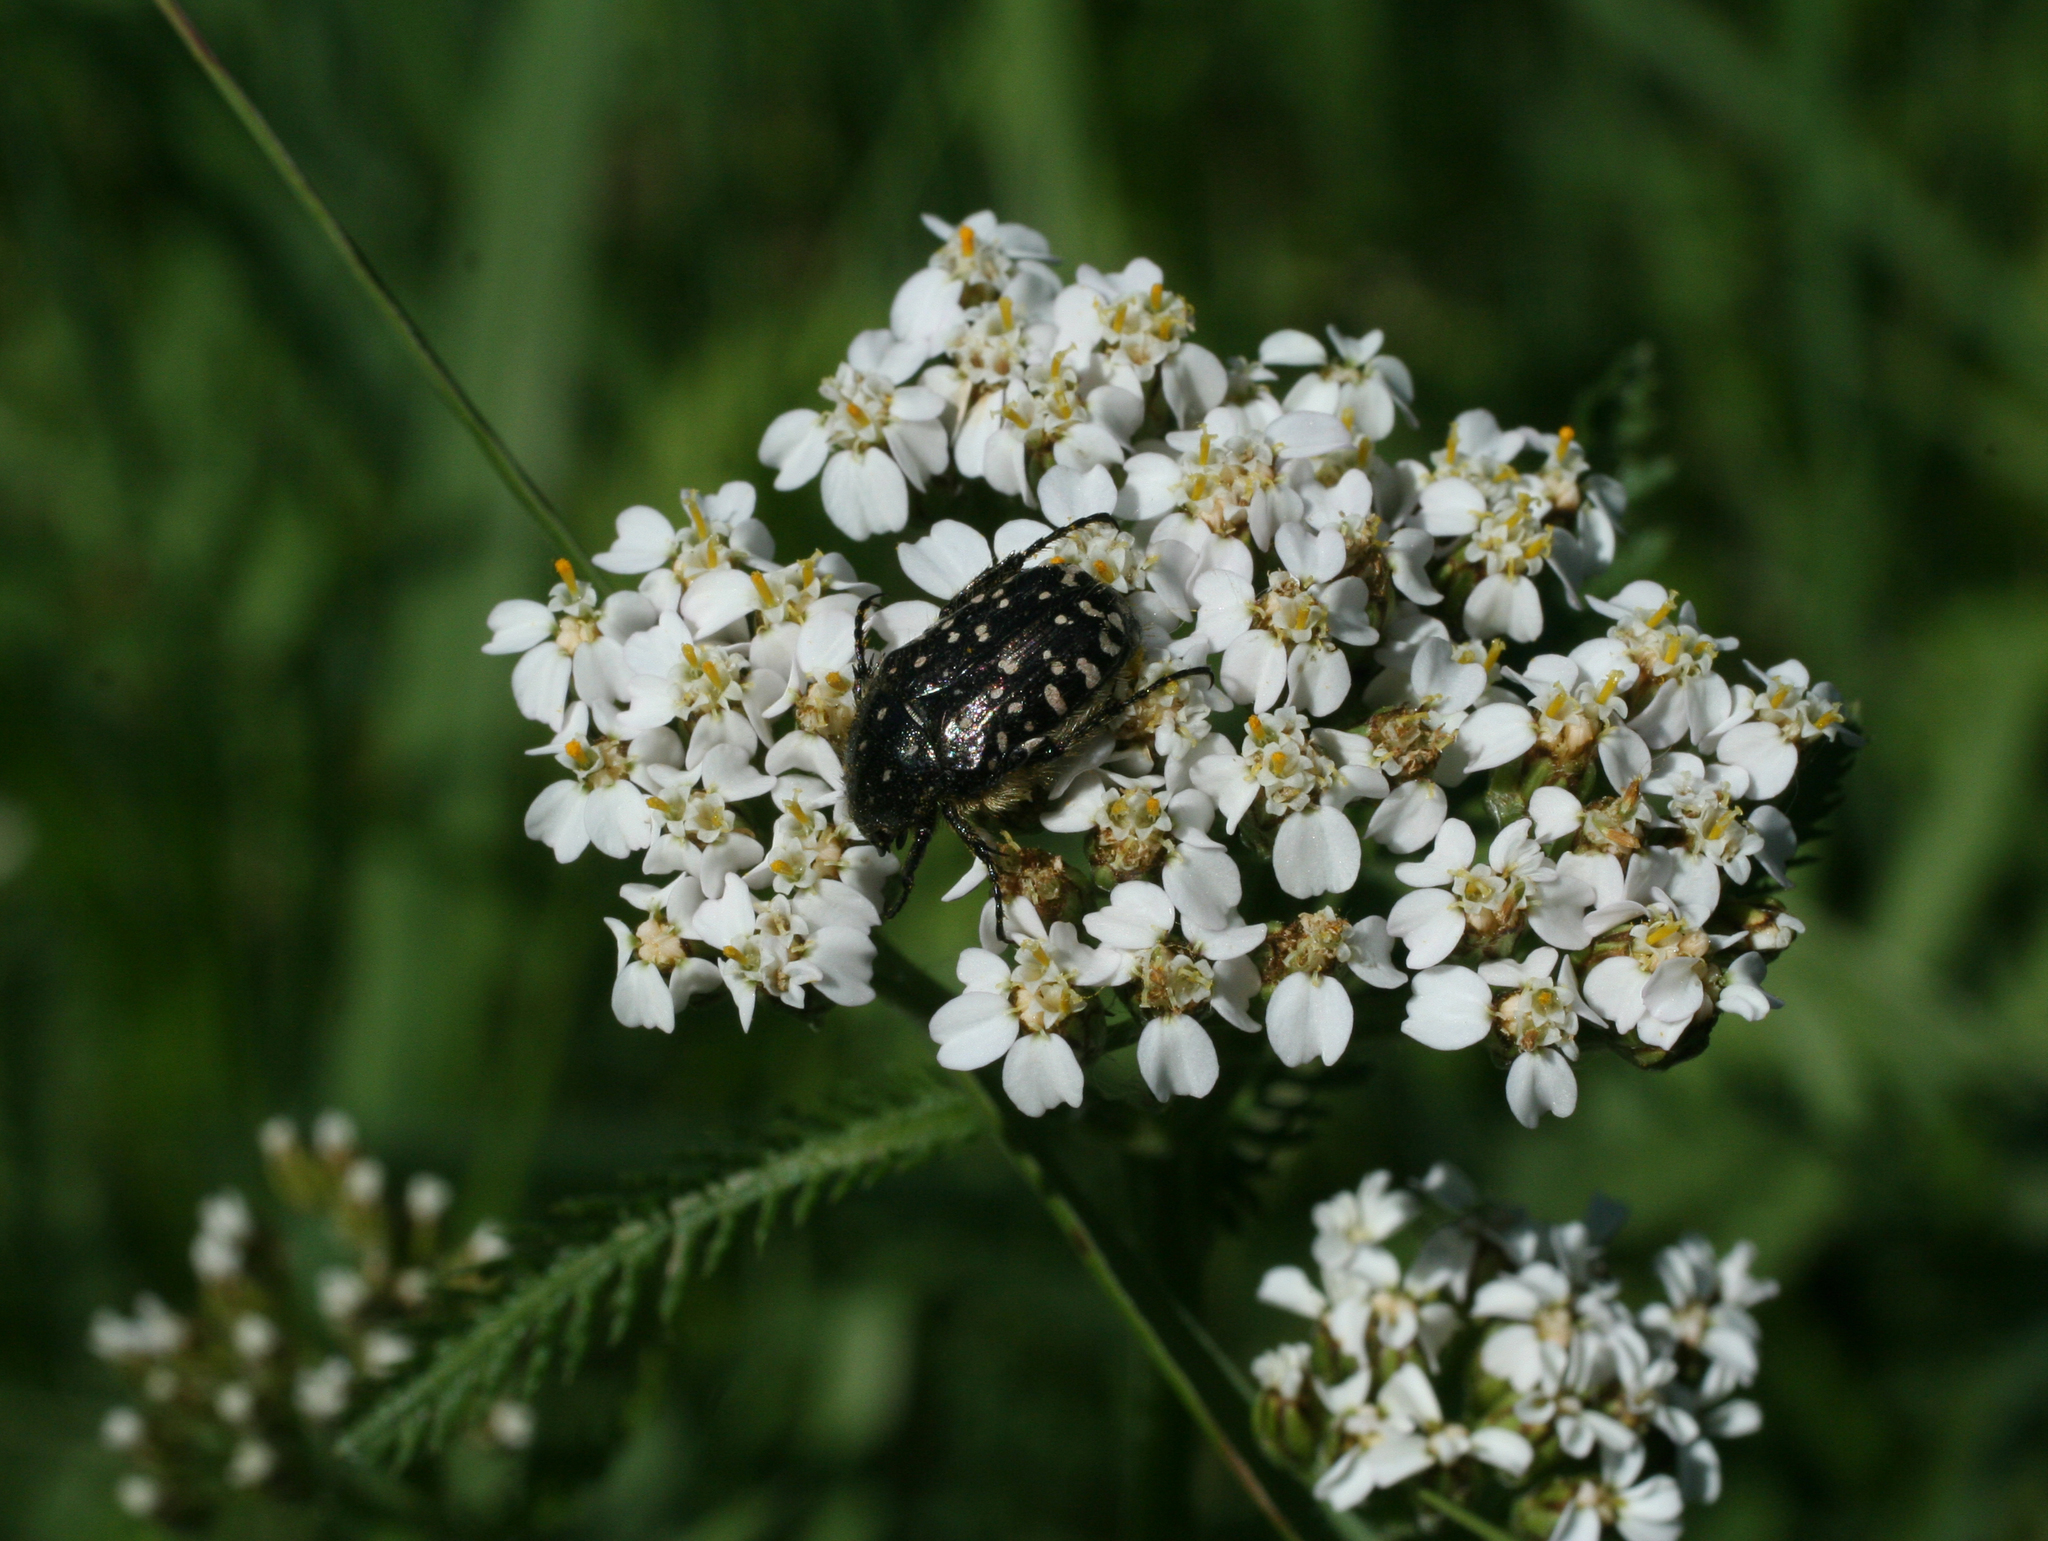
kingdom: Plantae
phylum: Tracheophyta
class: Magnoliopsida
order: Asterales
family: Asteraceae
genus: Achillea
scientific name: Achillea millefolium
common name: Yarrow
